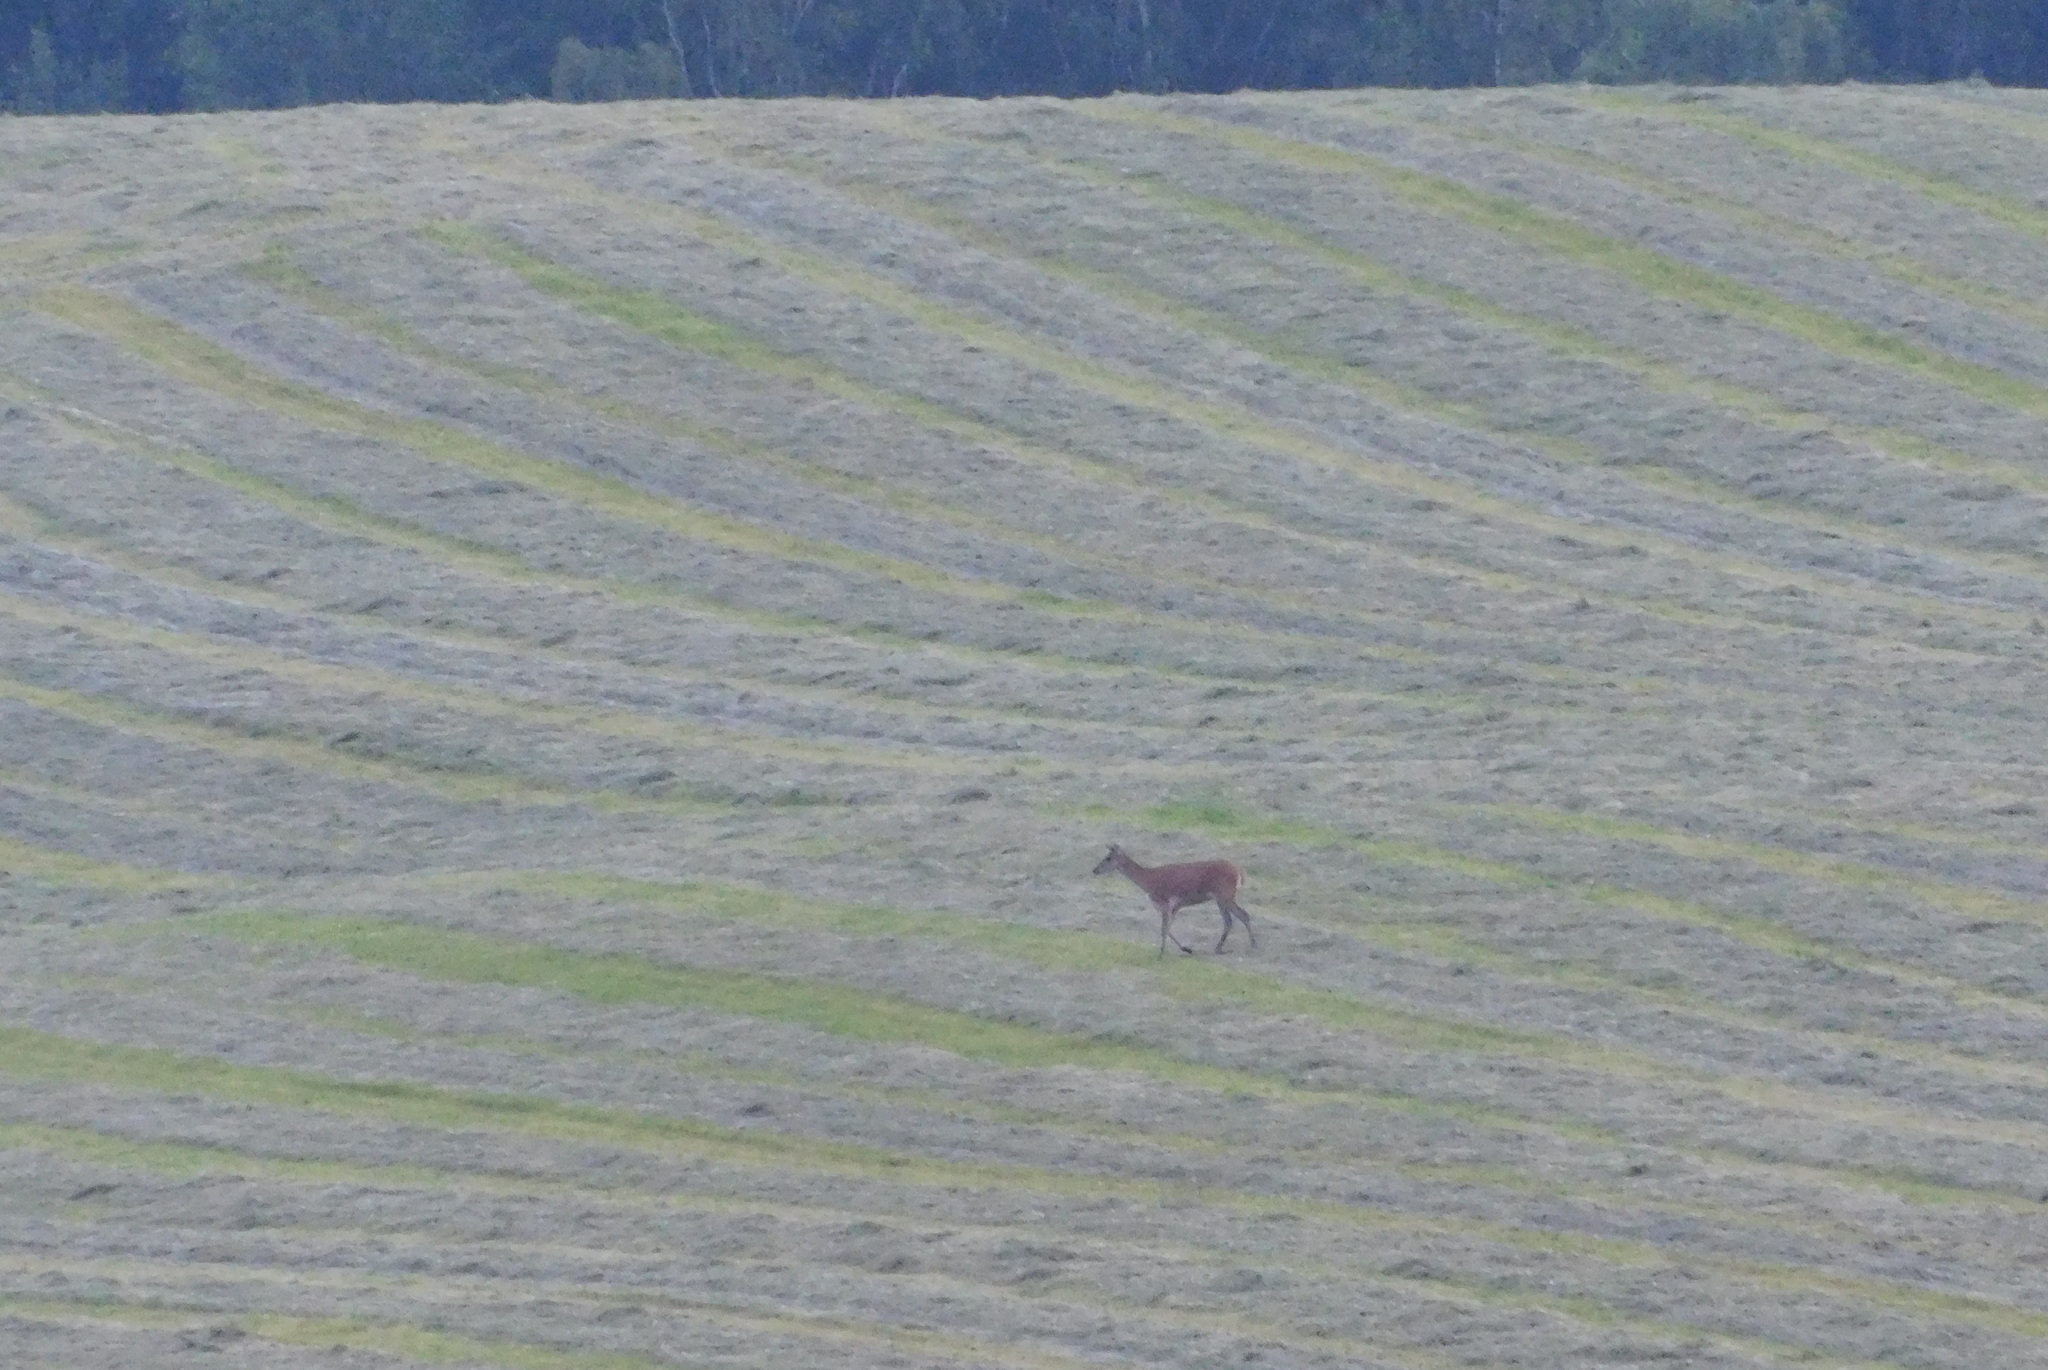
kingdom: Animalia
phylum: Chordata
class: Mammalia
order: Artiodactyla
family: Cervidae
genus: Cervus
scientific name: Cervus elaphus
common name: Red deer
